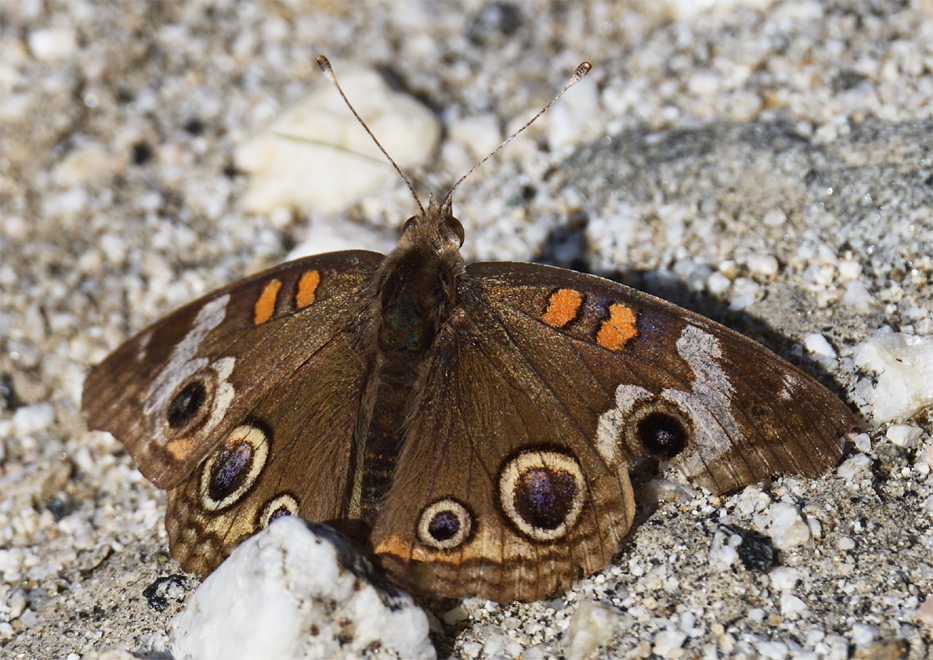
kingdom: Animalia
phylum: Arthropoda
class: Insecta
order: Lepidoptera
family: Nymphalidae
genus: Junonia
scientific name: Junonia grisea
